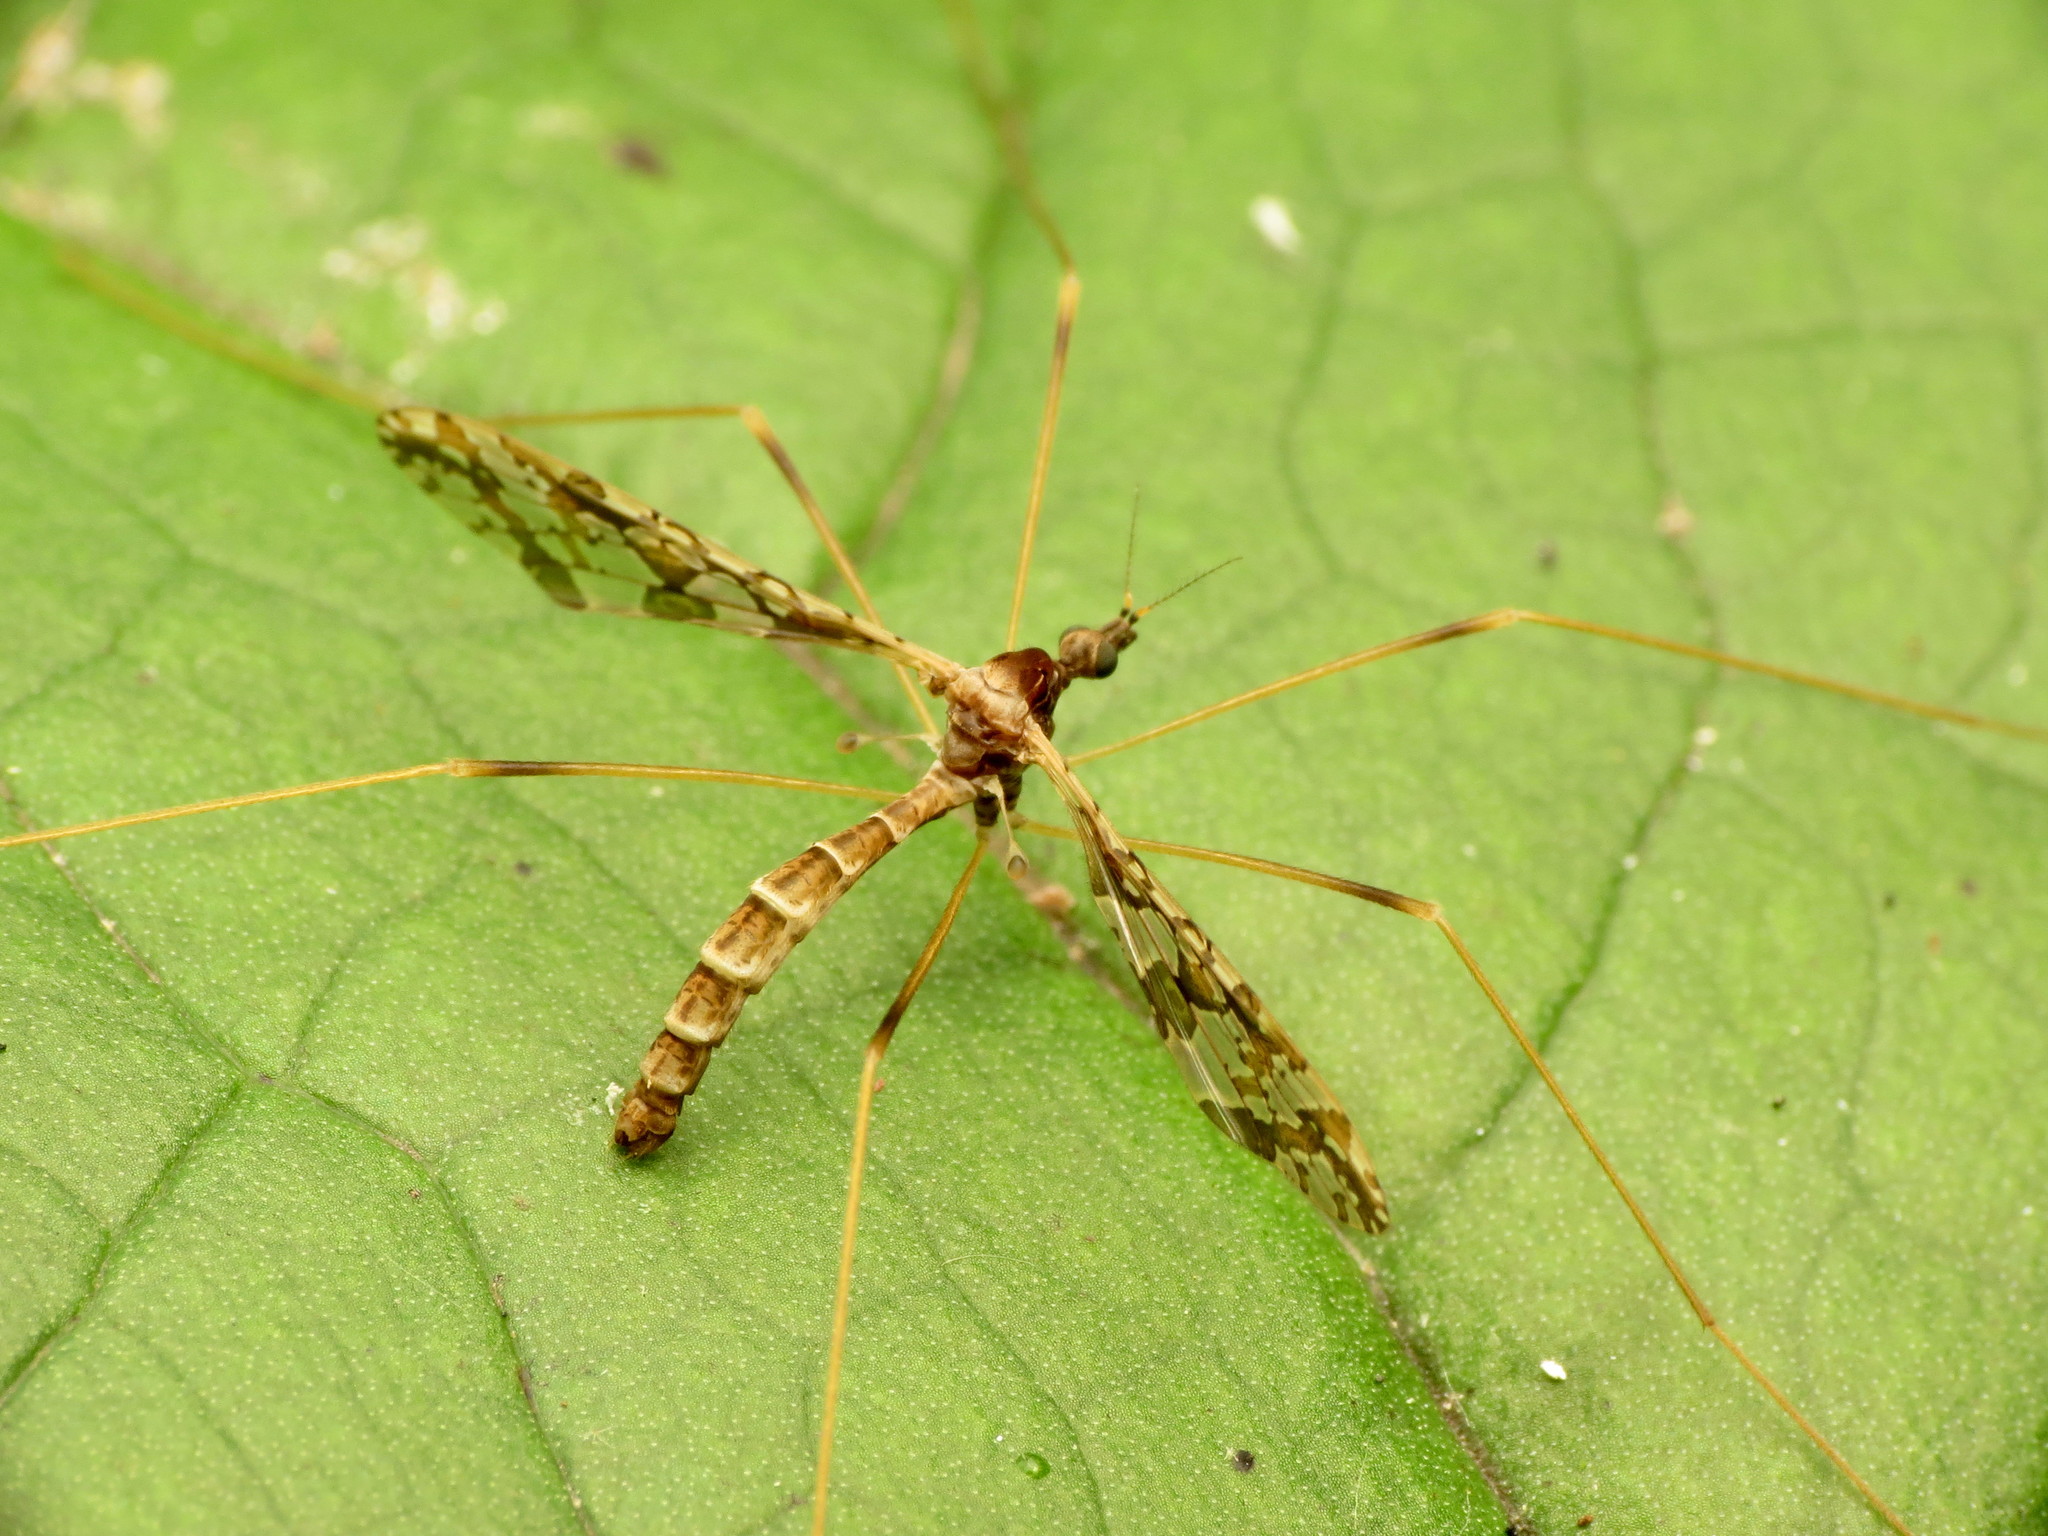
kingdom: Animalia
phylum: Arthropoda
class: Insecta
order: Diptera
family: Limoniidae
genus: Epiphragma
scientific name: Epiphragma solatrix
